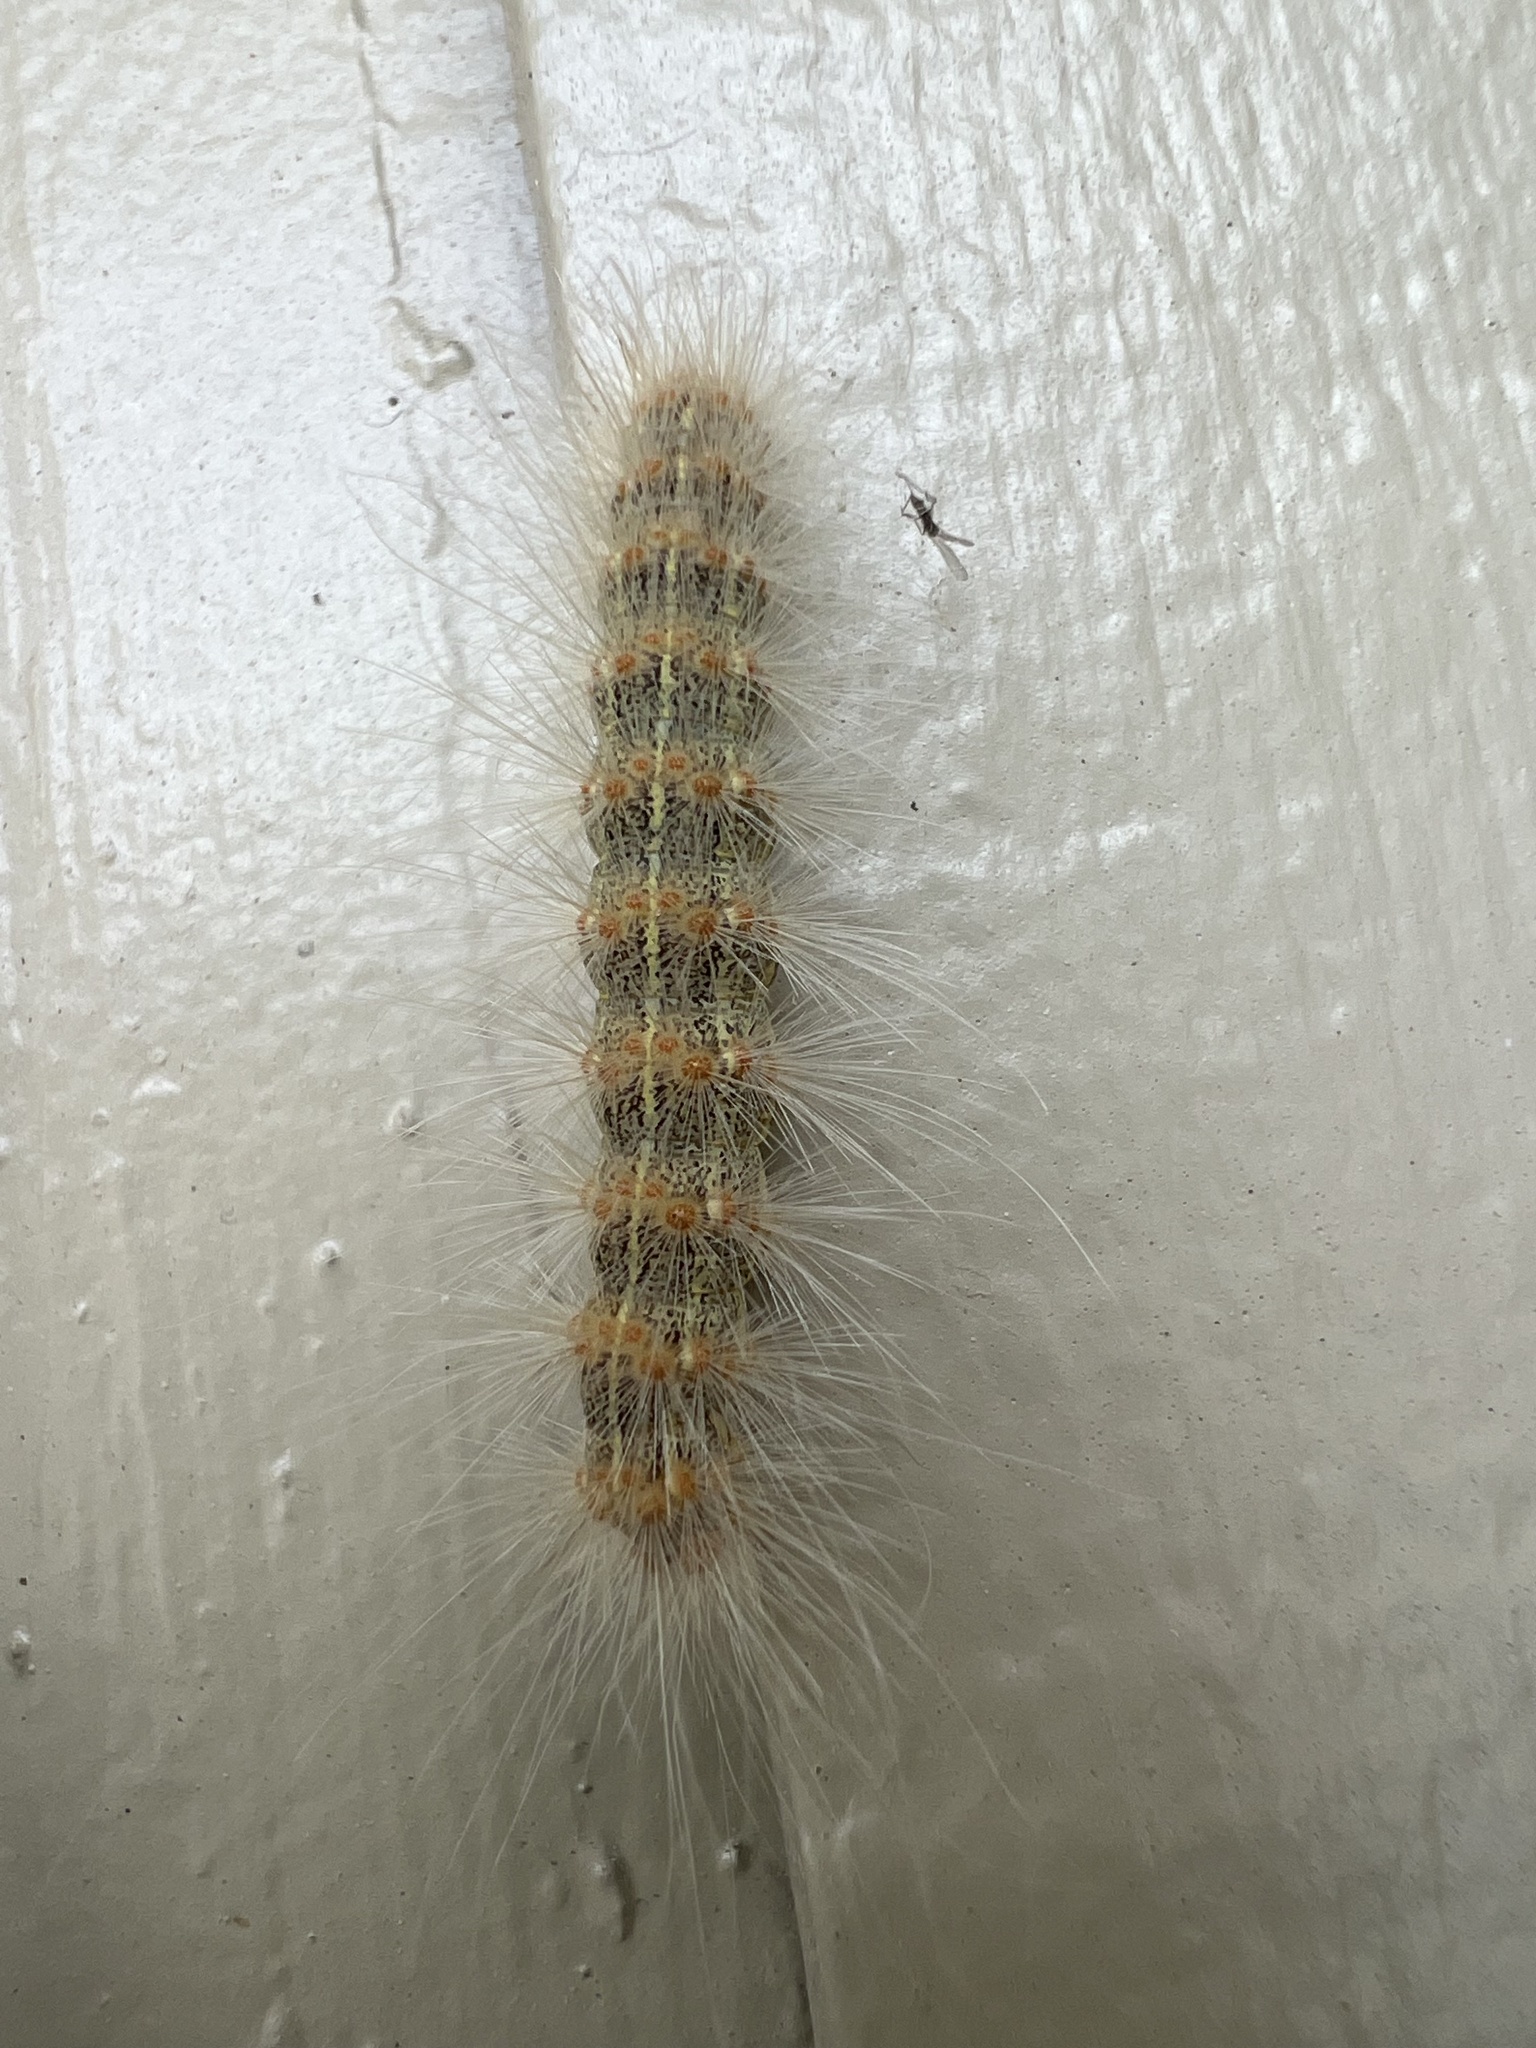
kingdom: Animalia
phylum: Arthropoda
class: Insecta
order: Lepidoptera
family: Erebidae
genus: Hyphantria
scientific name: Hyphantria cunea
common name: American white moth
